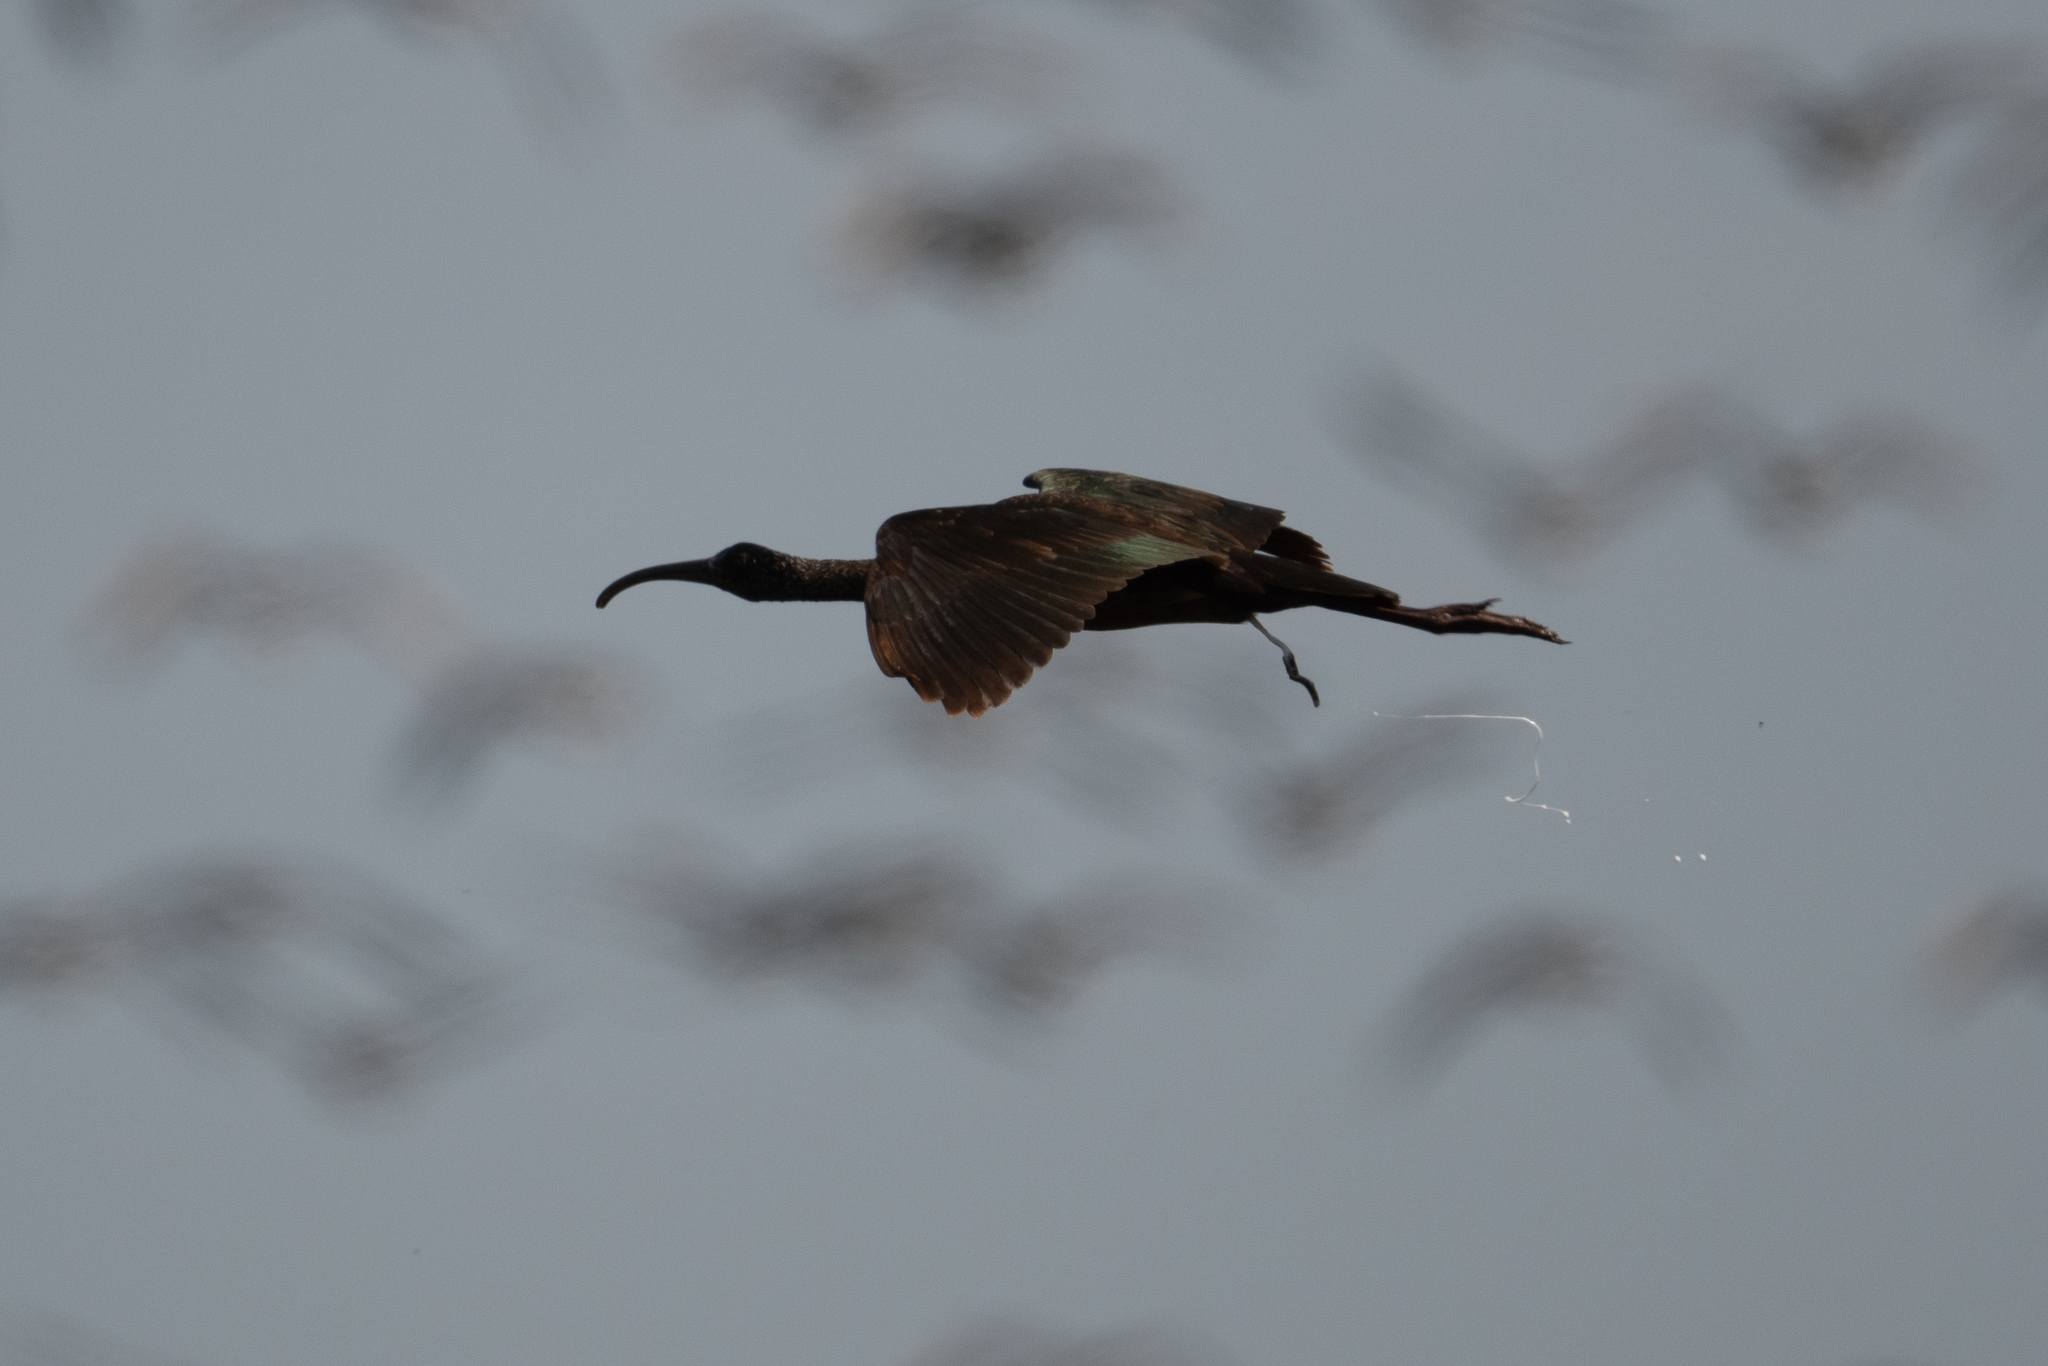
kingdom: Animalia
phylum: Chordata
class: Aves
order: Pelecaniformes
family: Threskiornithidae
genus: Plegadis
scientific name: Plegadis chihi
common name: White-faced ibis
